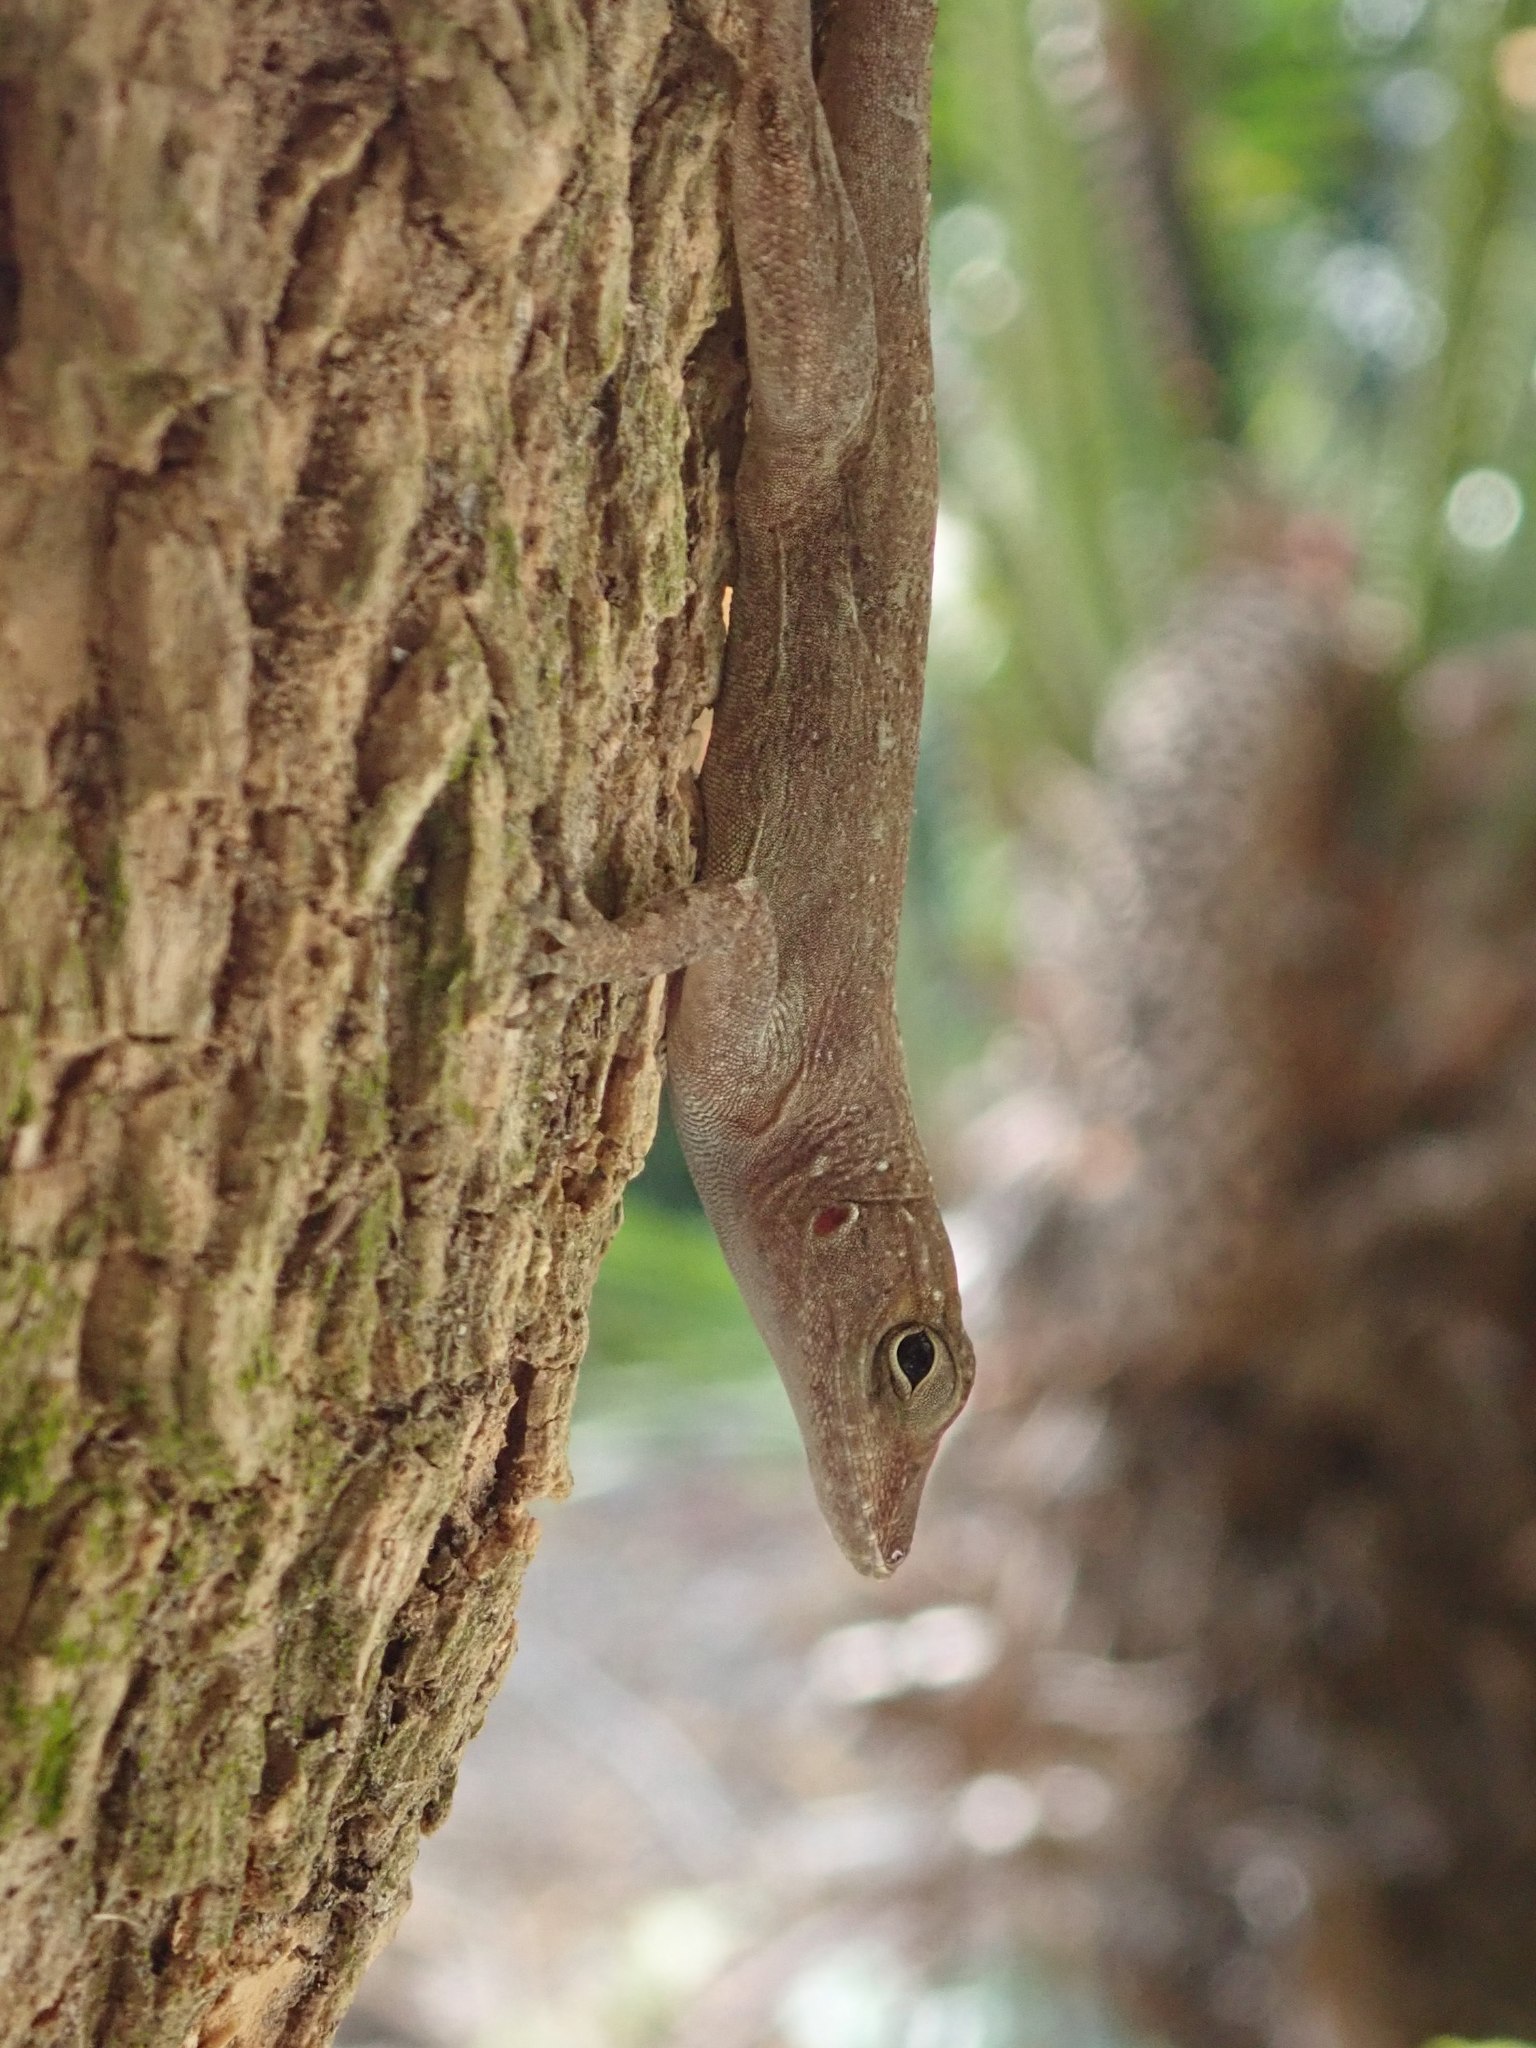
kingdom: Animalia
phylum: Chordata
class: Squamata
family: Dactyloidae
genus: Anolis
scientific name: Anolis cristatellus
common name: Crested anole
